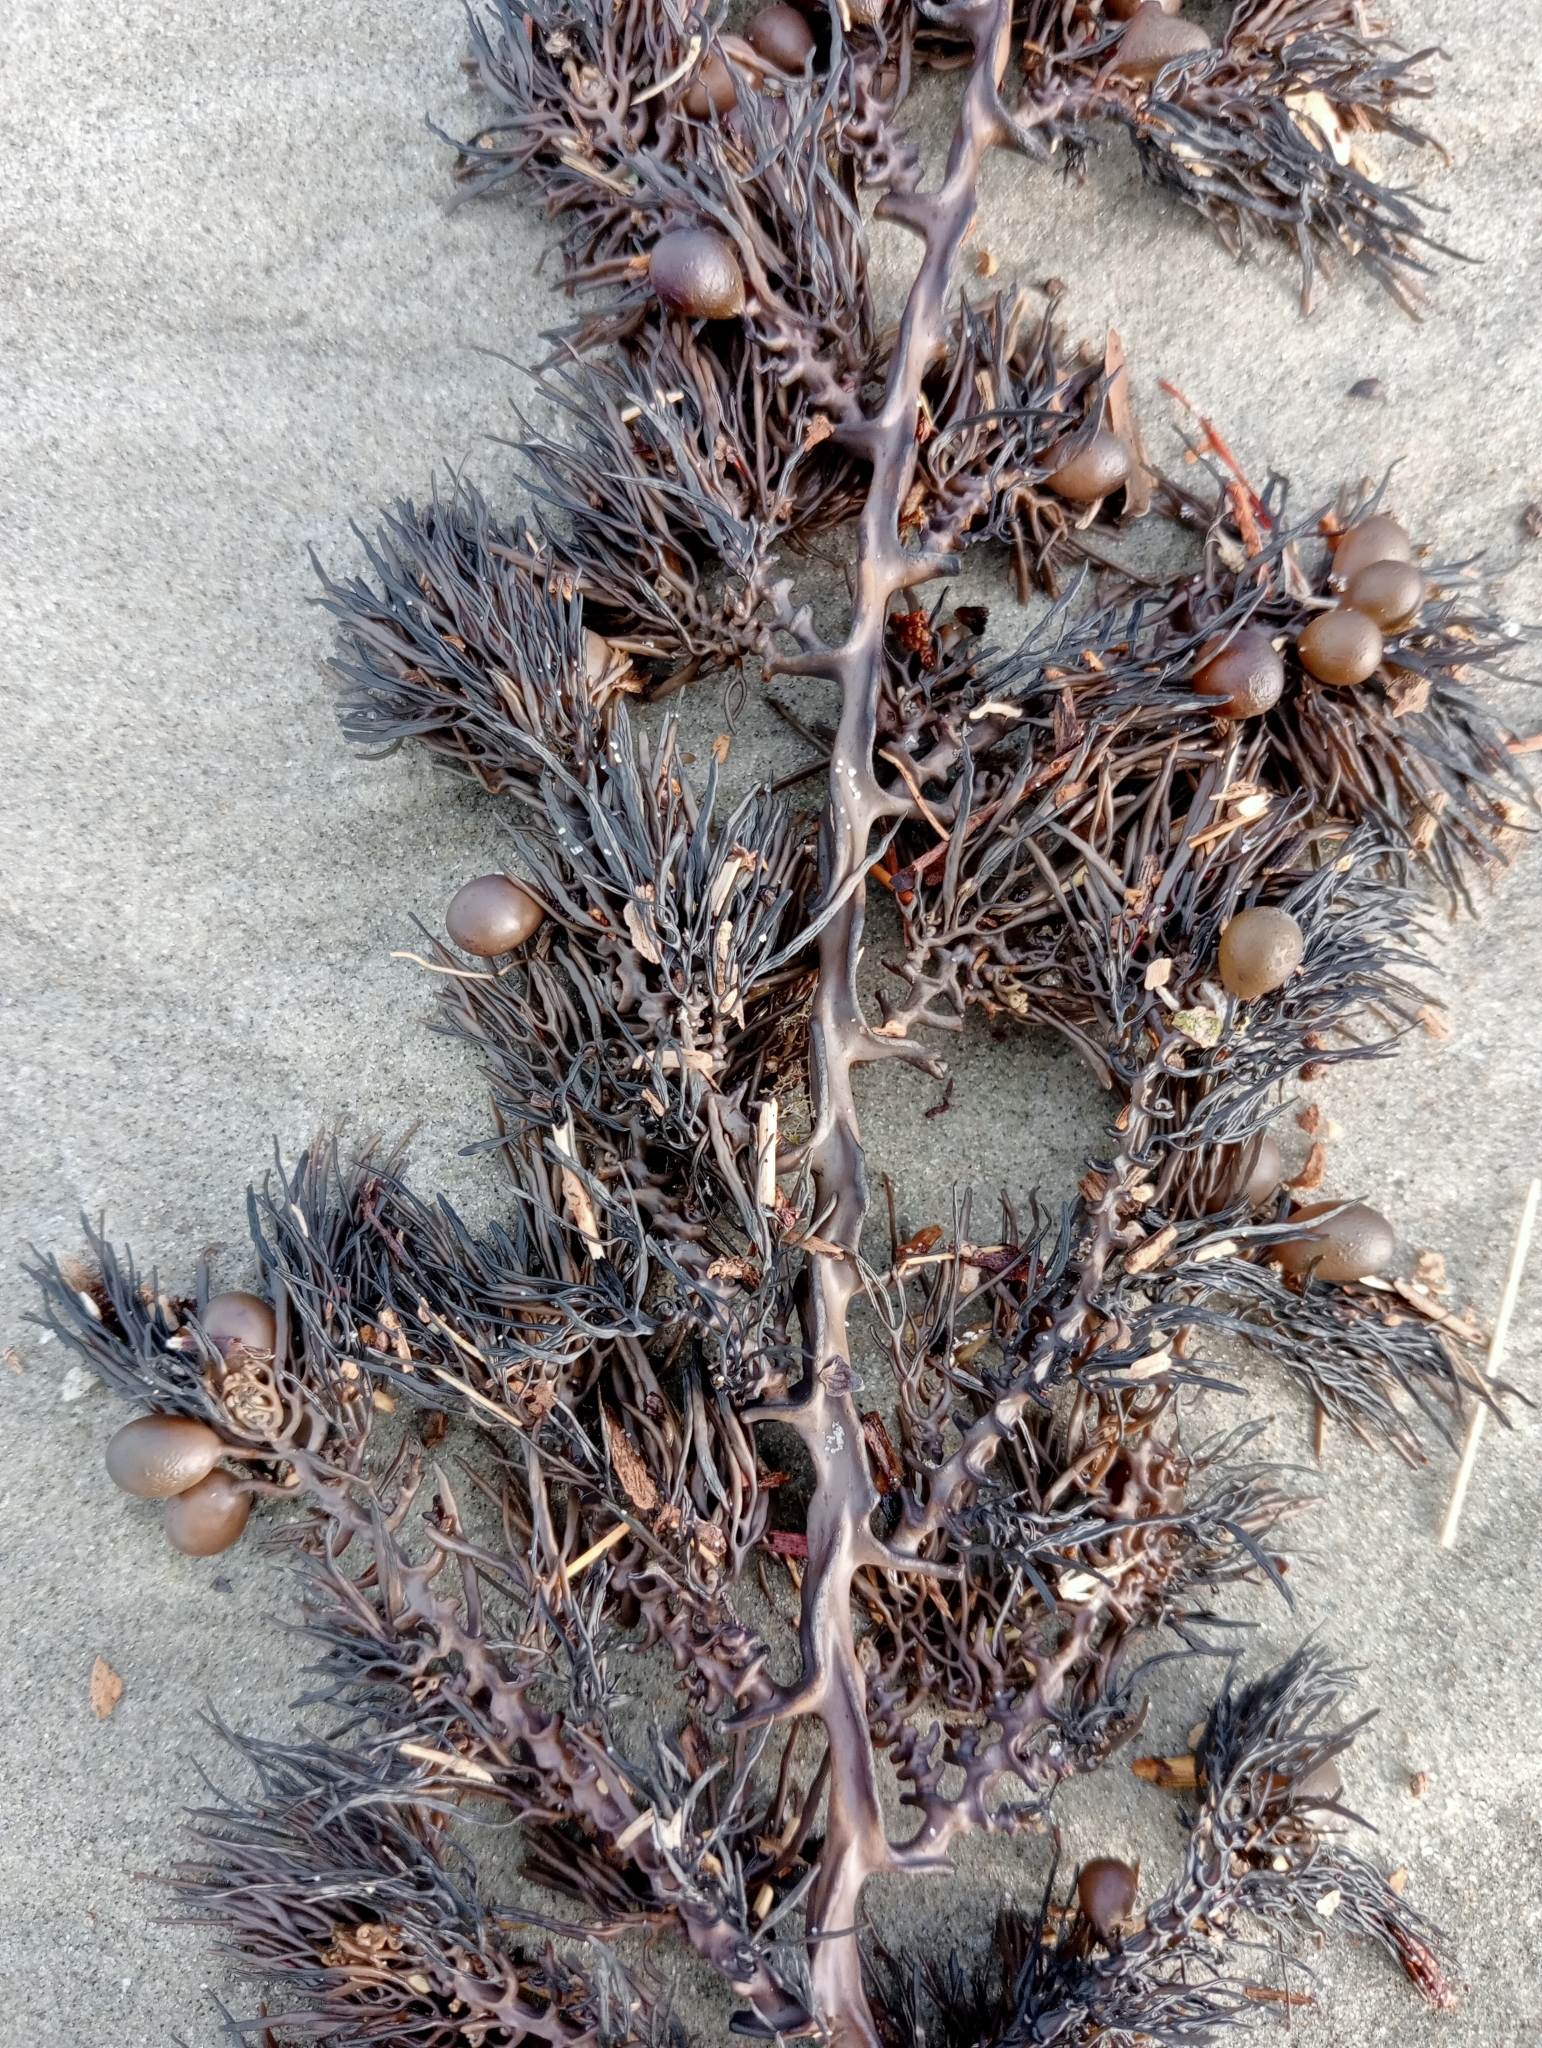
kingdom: Chromista
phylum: Ochrophyta
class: Phaeophyceae
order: Fucales
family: Sargassaceae
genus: Cystophora
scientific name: Cystophora scalaris
